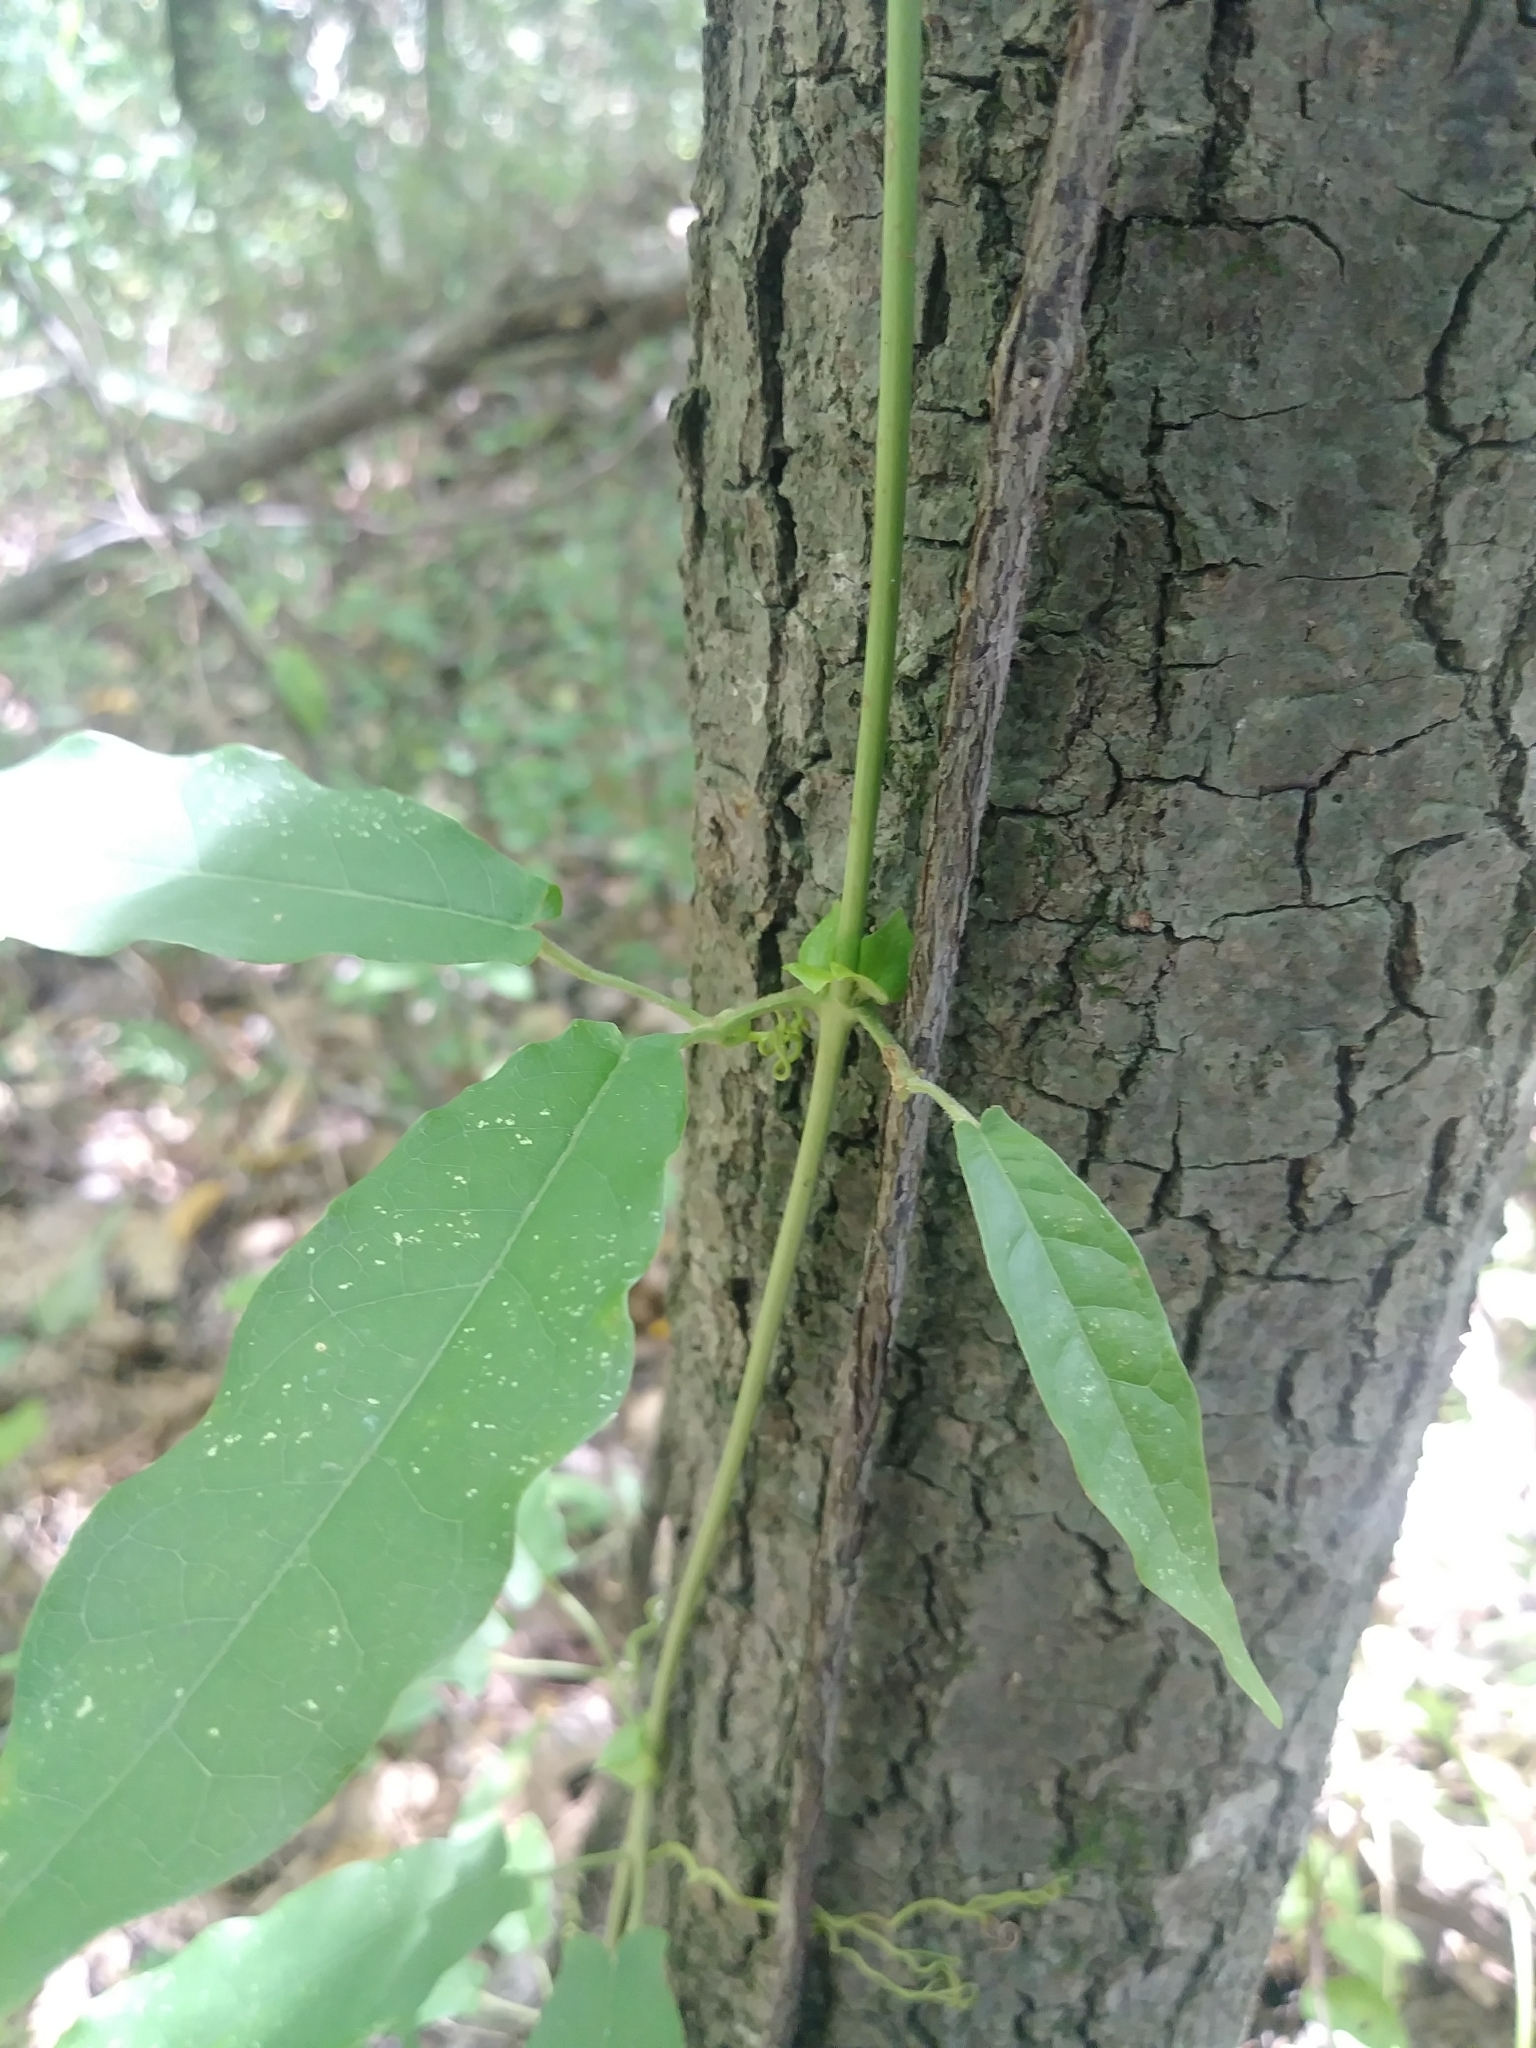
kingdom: Plantae
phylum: Tracheophyta
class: Magnoliopsida
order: Lamiales
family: Bignoniaceae
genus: Bignonia
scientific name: Bignonia capreolata
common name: Crossvine
